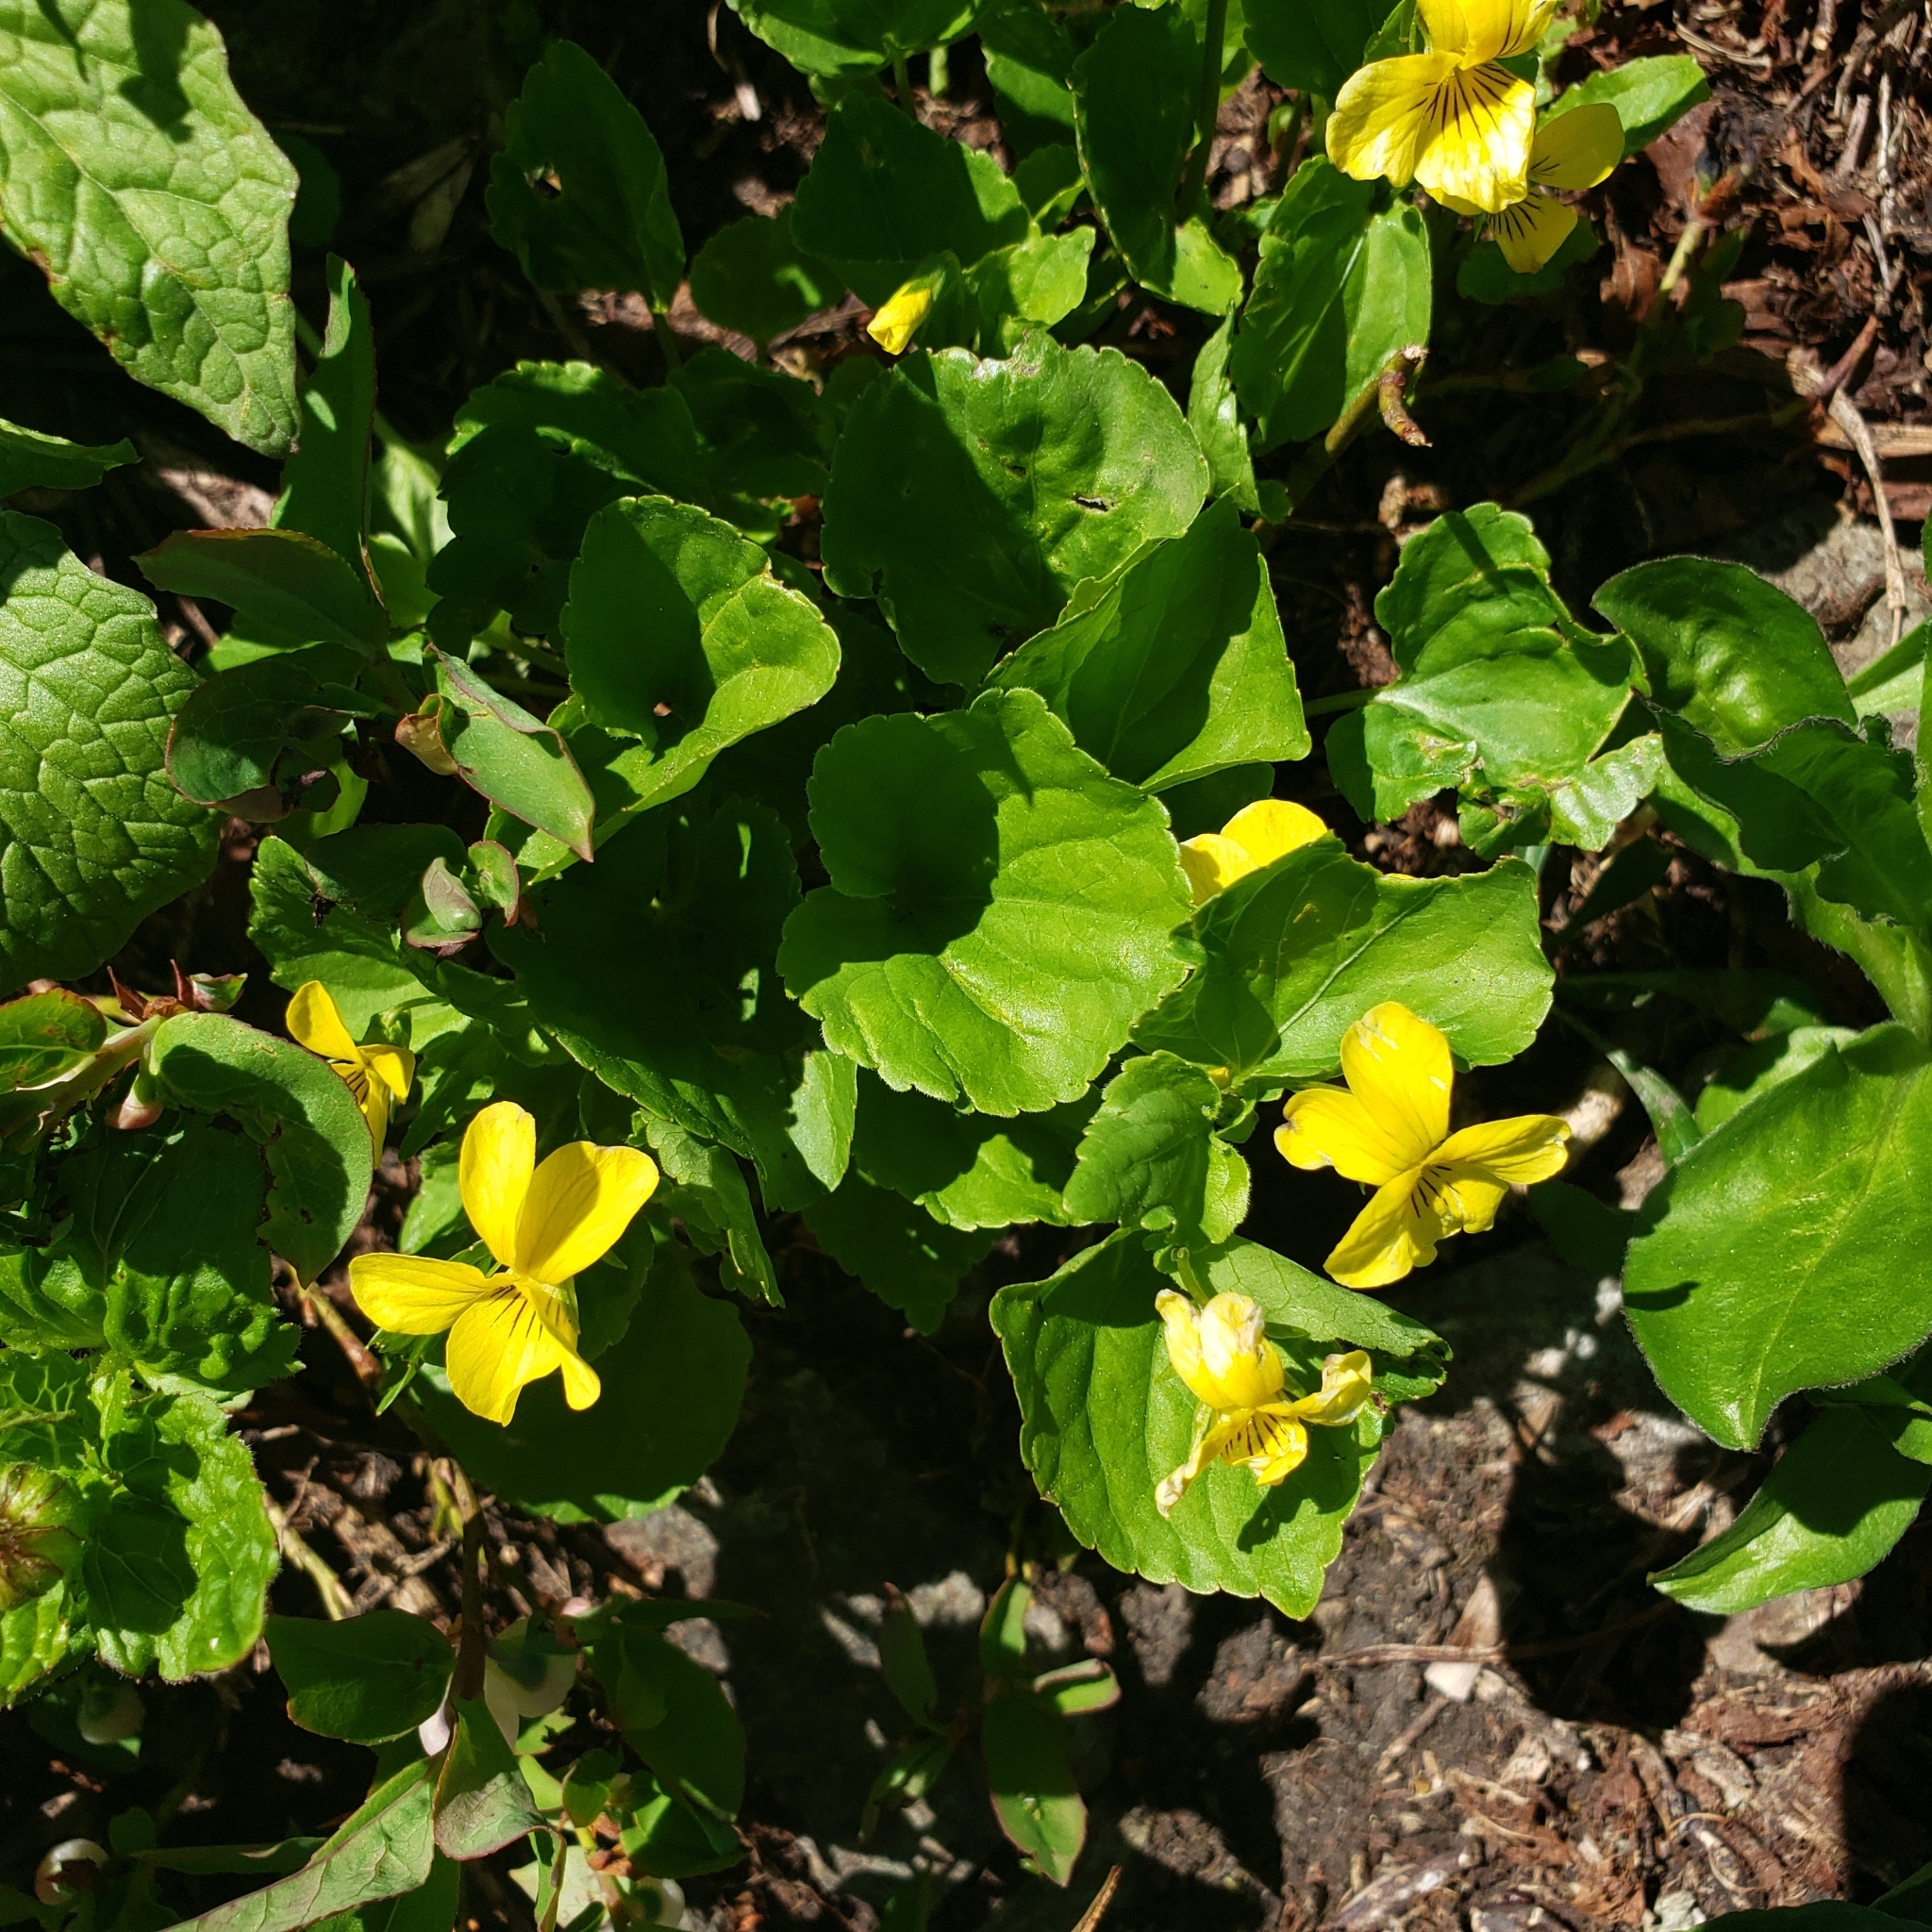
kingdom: Plantae
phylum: Tracheophyta
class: Magnoliopsida
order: Malpighiales
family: Violaceae
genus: Viola
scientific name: Viola glabella
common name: Stream violet
